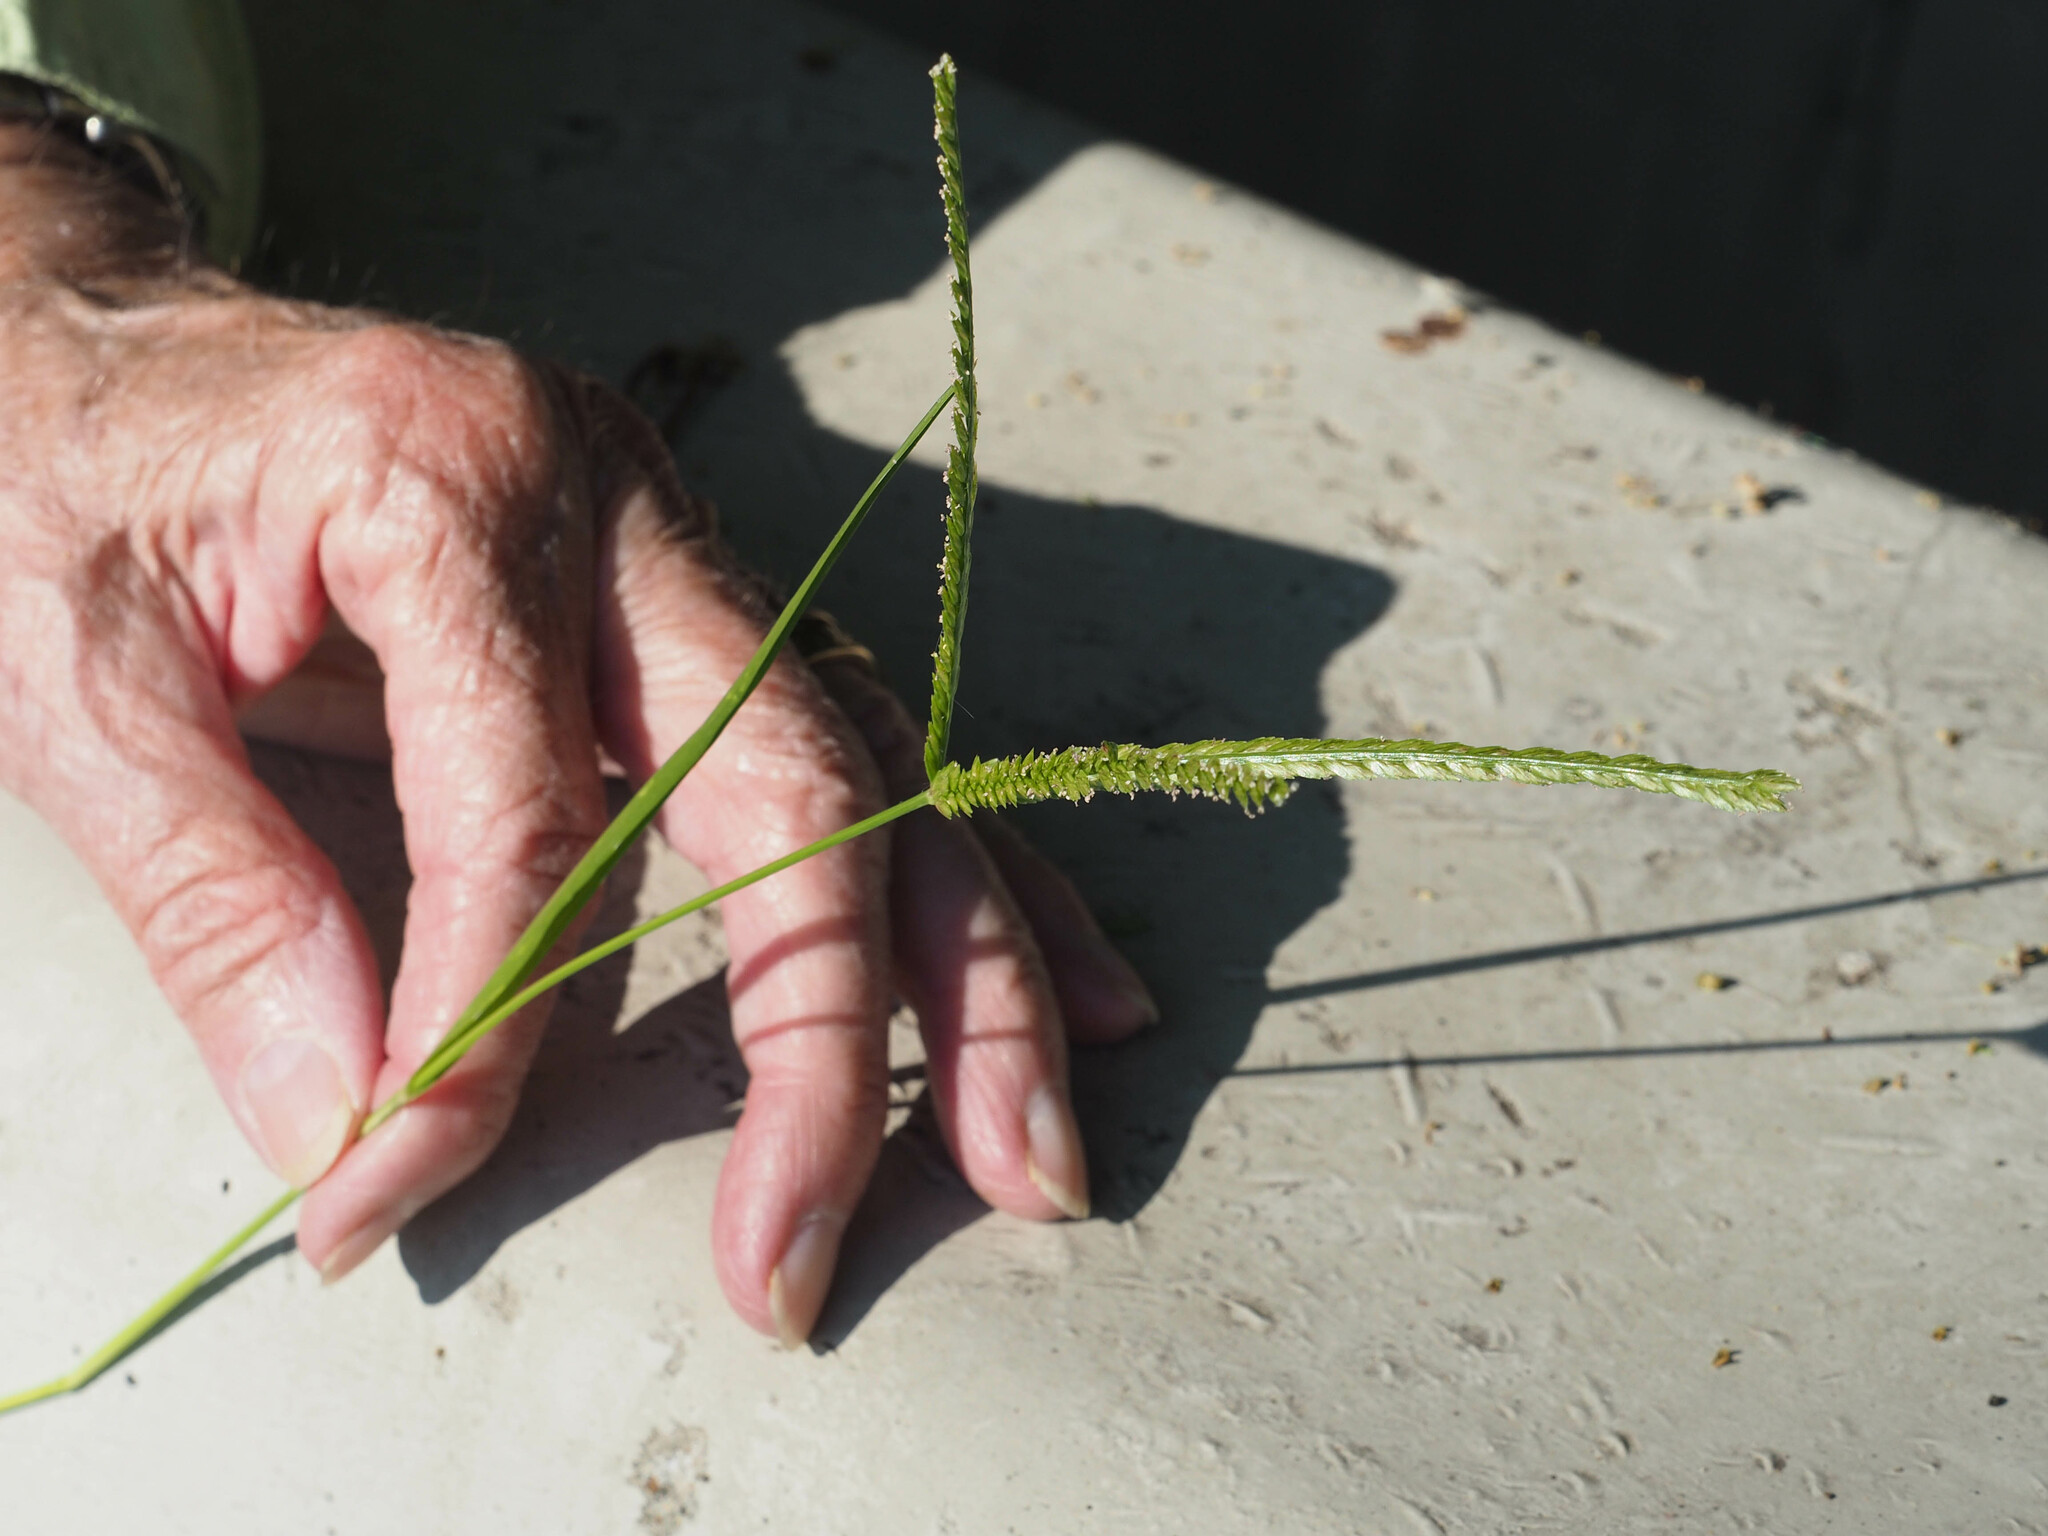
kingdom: Plantae
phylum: Tracheophyta
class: Liliopsida
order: Poales
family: Poaceae
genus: Eleusine
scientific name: Eleusine indica
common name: Yard-grass
